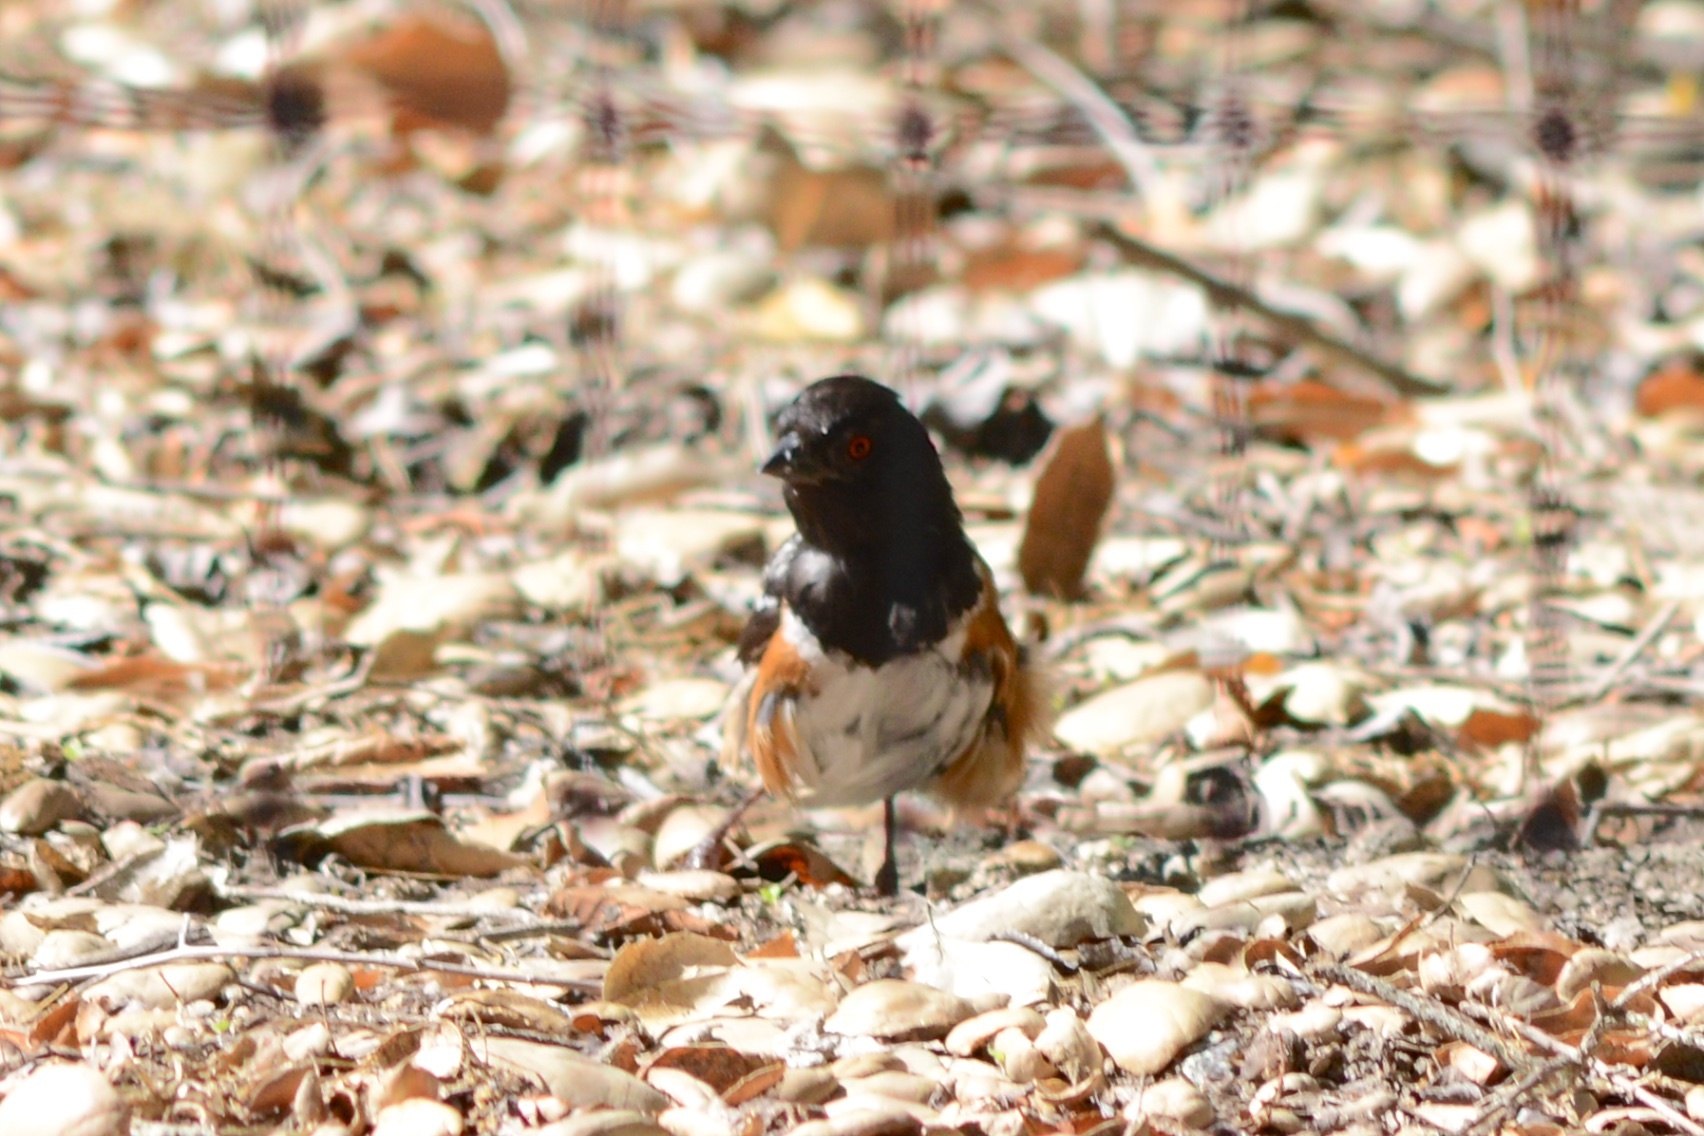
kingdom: Animalia
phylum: Chordata
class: Aves
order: Passeriformes
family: Passerellidae
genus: Pipilo
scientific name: Pipilo maculatus
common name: Spotted towhee
